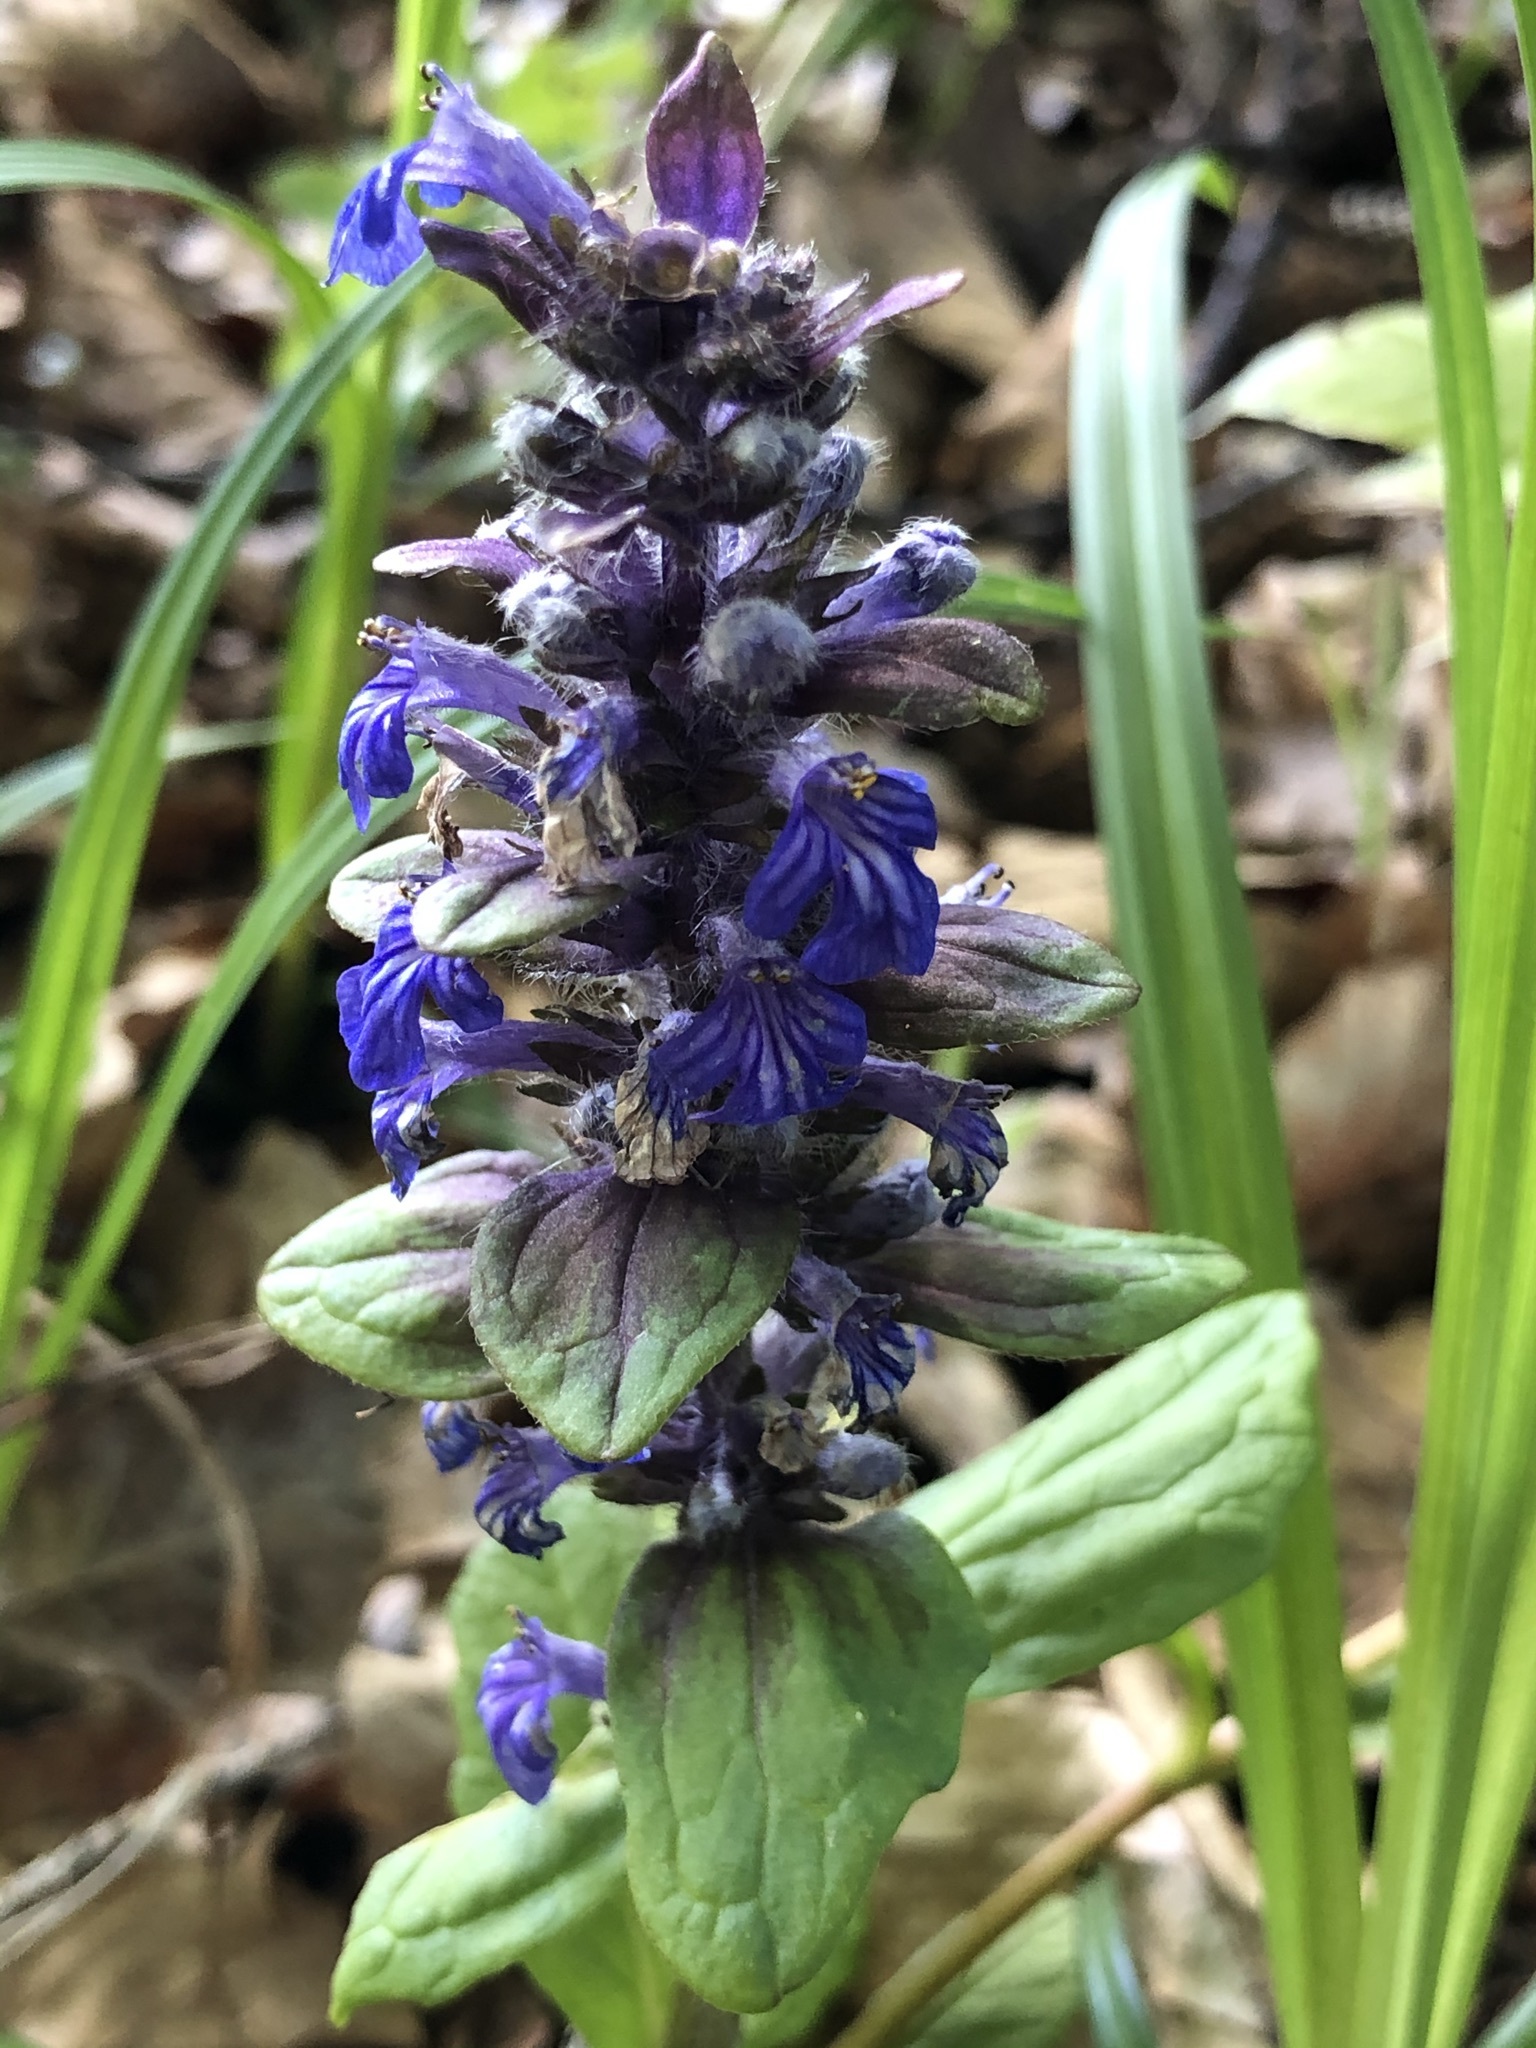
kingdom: Plantae
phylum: Tracheophyta
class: Magnoliopsida
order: Lamiales
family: Lamiaceae
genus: Ajuga
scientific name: Ajuga reptans
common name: Bugle
